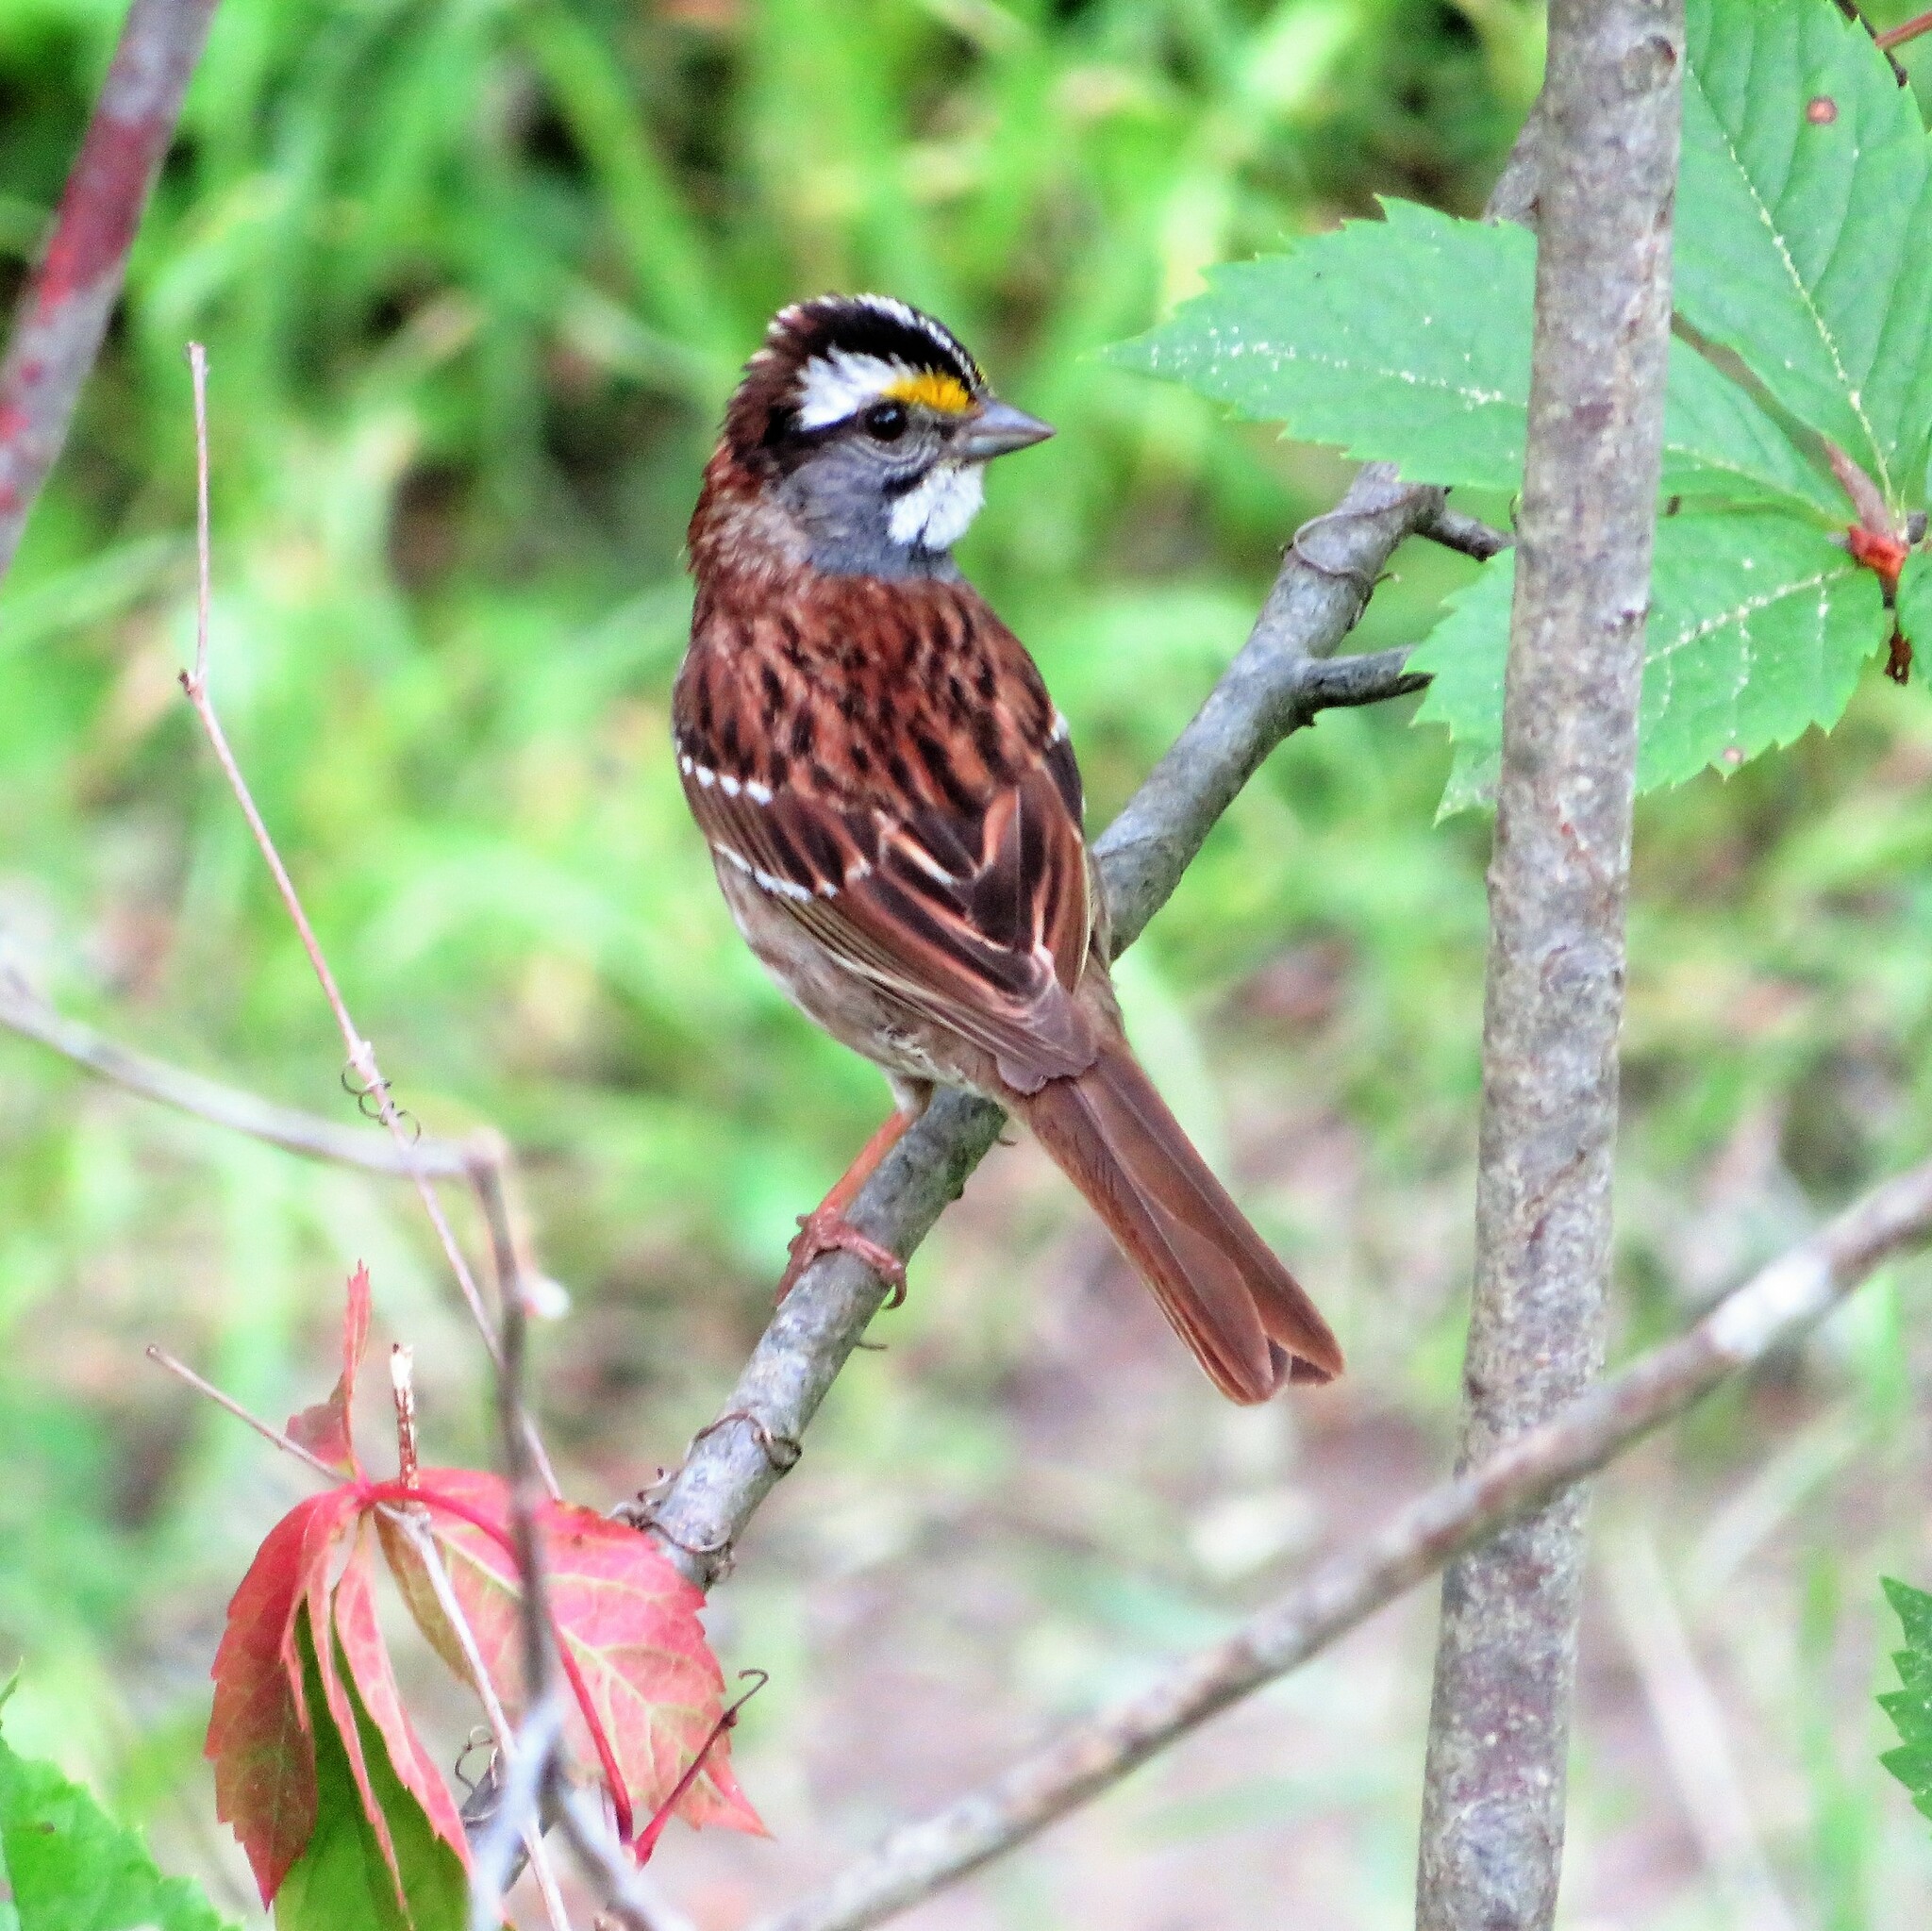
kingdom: Animalia
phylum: Chordata
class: Aves
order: Passeriformes
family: Passerellidae
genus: Zonotrichia
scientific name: Zonotrichia albicollis
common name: White-throated sparrow
